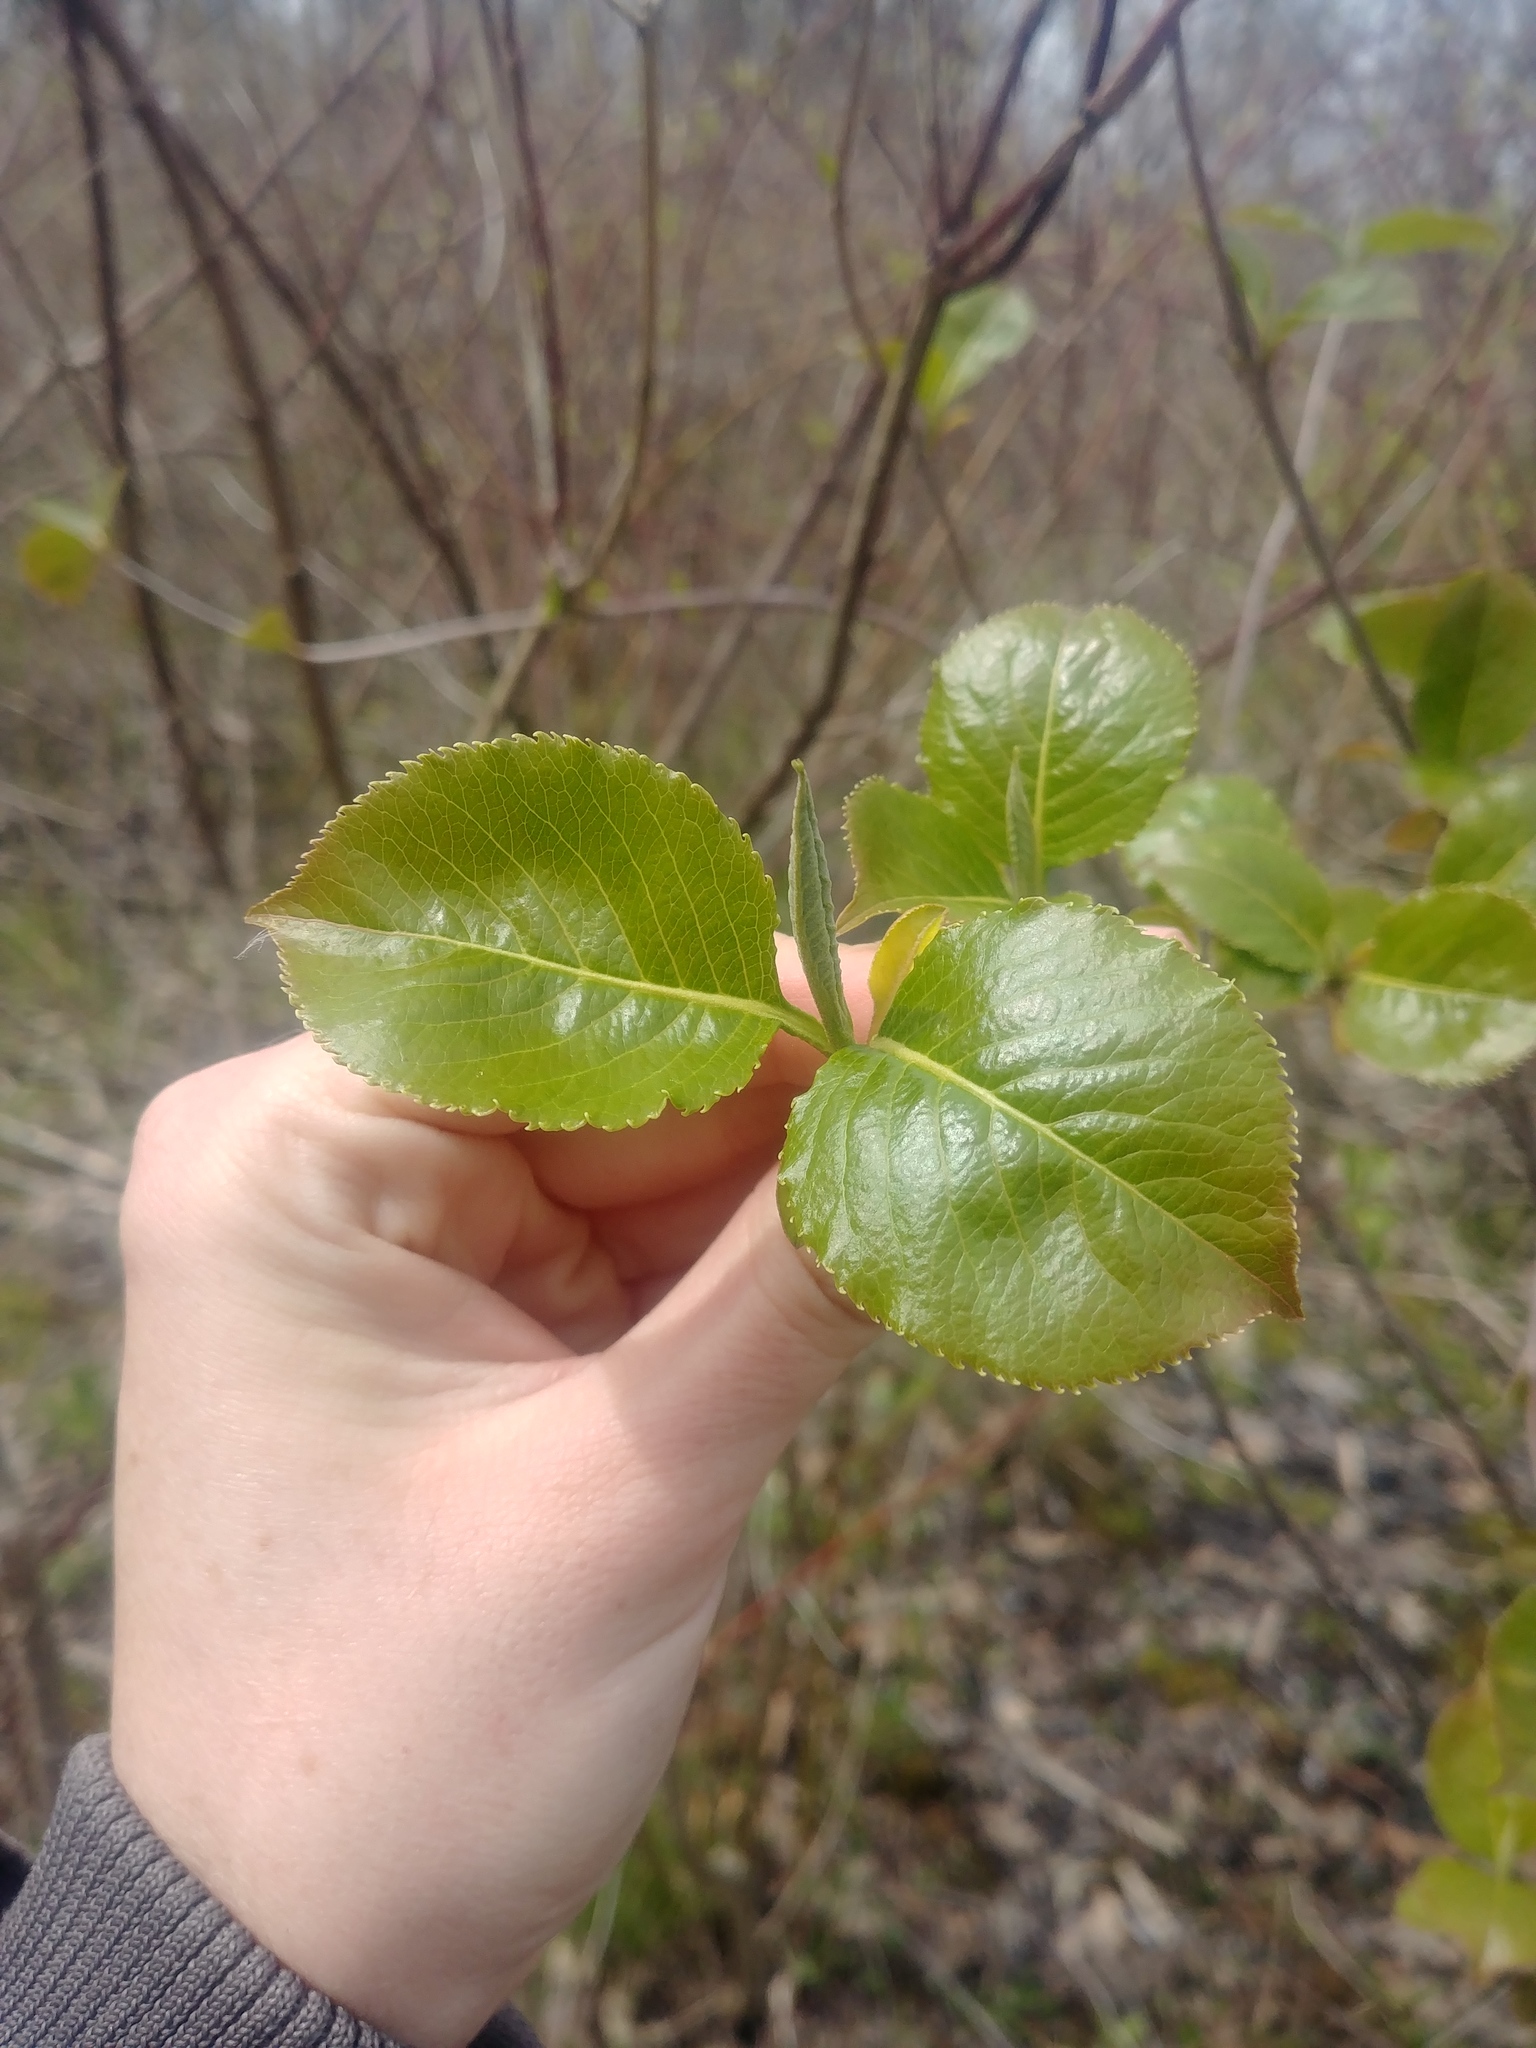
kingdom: Plantae
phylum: Tracheophyta
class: Magnoliopsida
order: Dipsacales
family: Viburnaceae
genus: Viburnum
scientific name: Viburnum lentago
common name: Black haw
